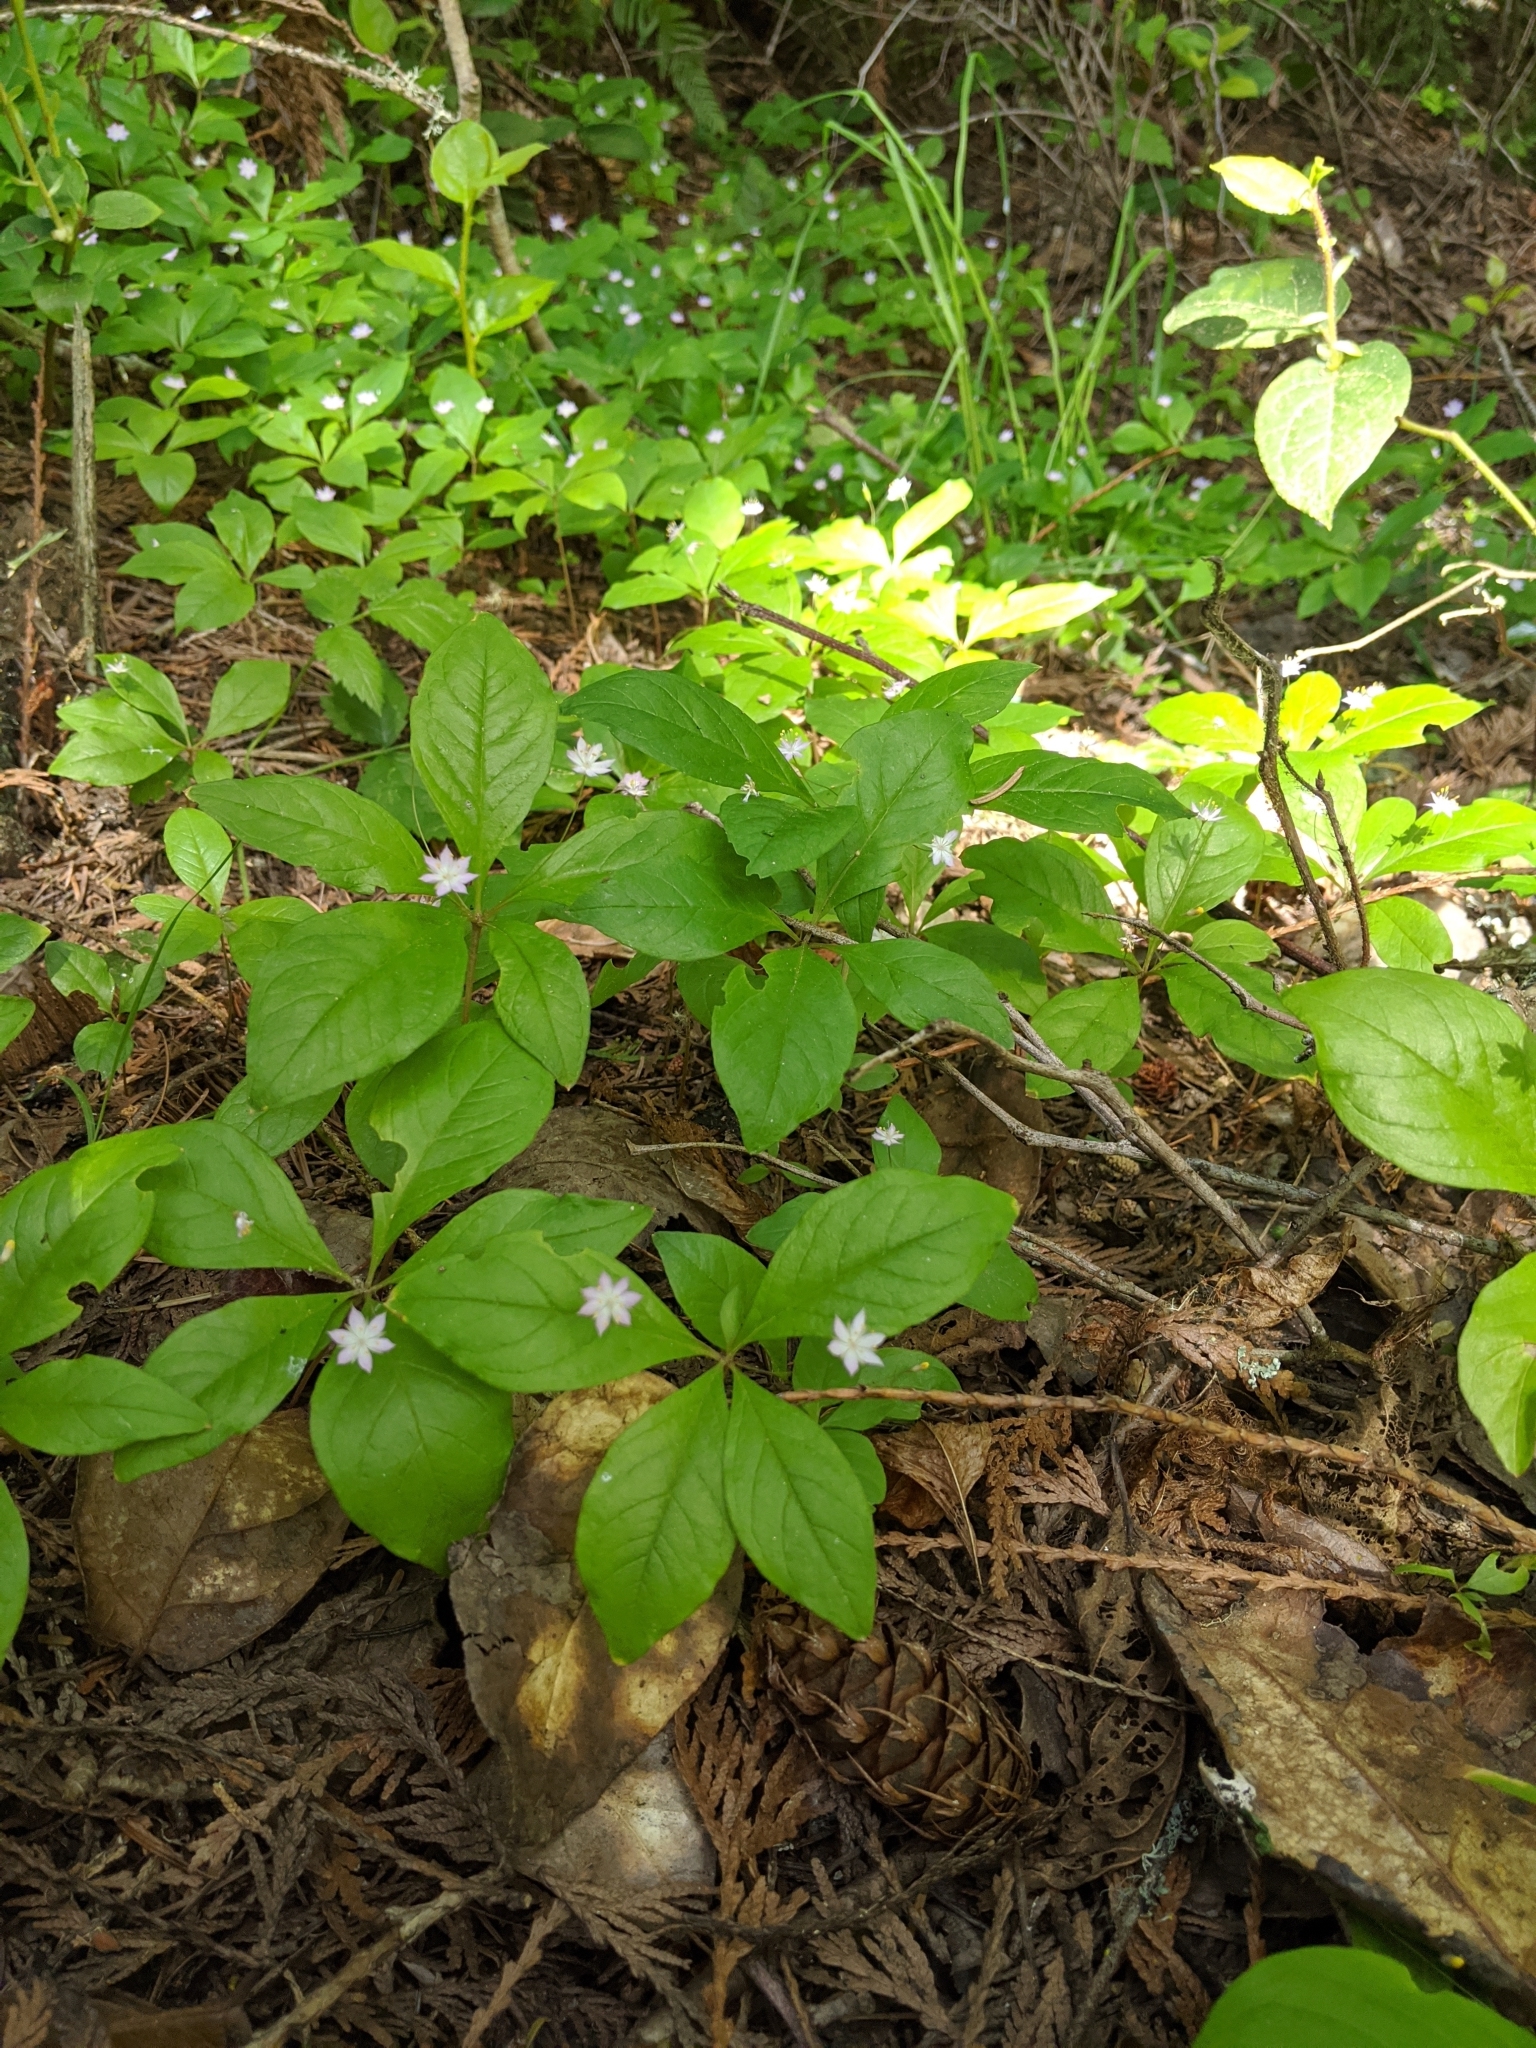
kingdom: Plantae
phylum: Tracheophyta
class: Magnoliopsida
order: Ericales
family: Primulaceae
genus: Lysimachia
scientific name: Lysimachia latifolia
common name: Pacific starflower
